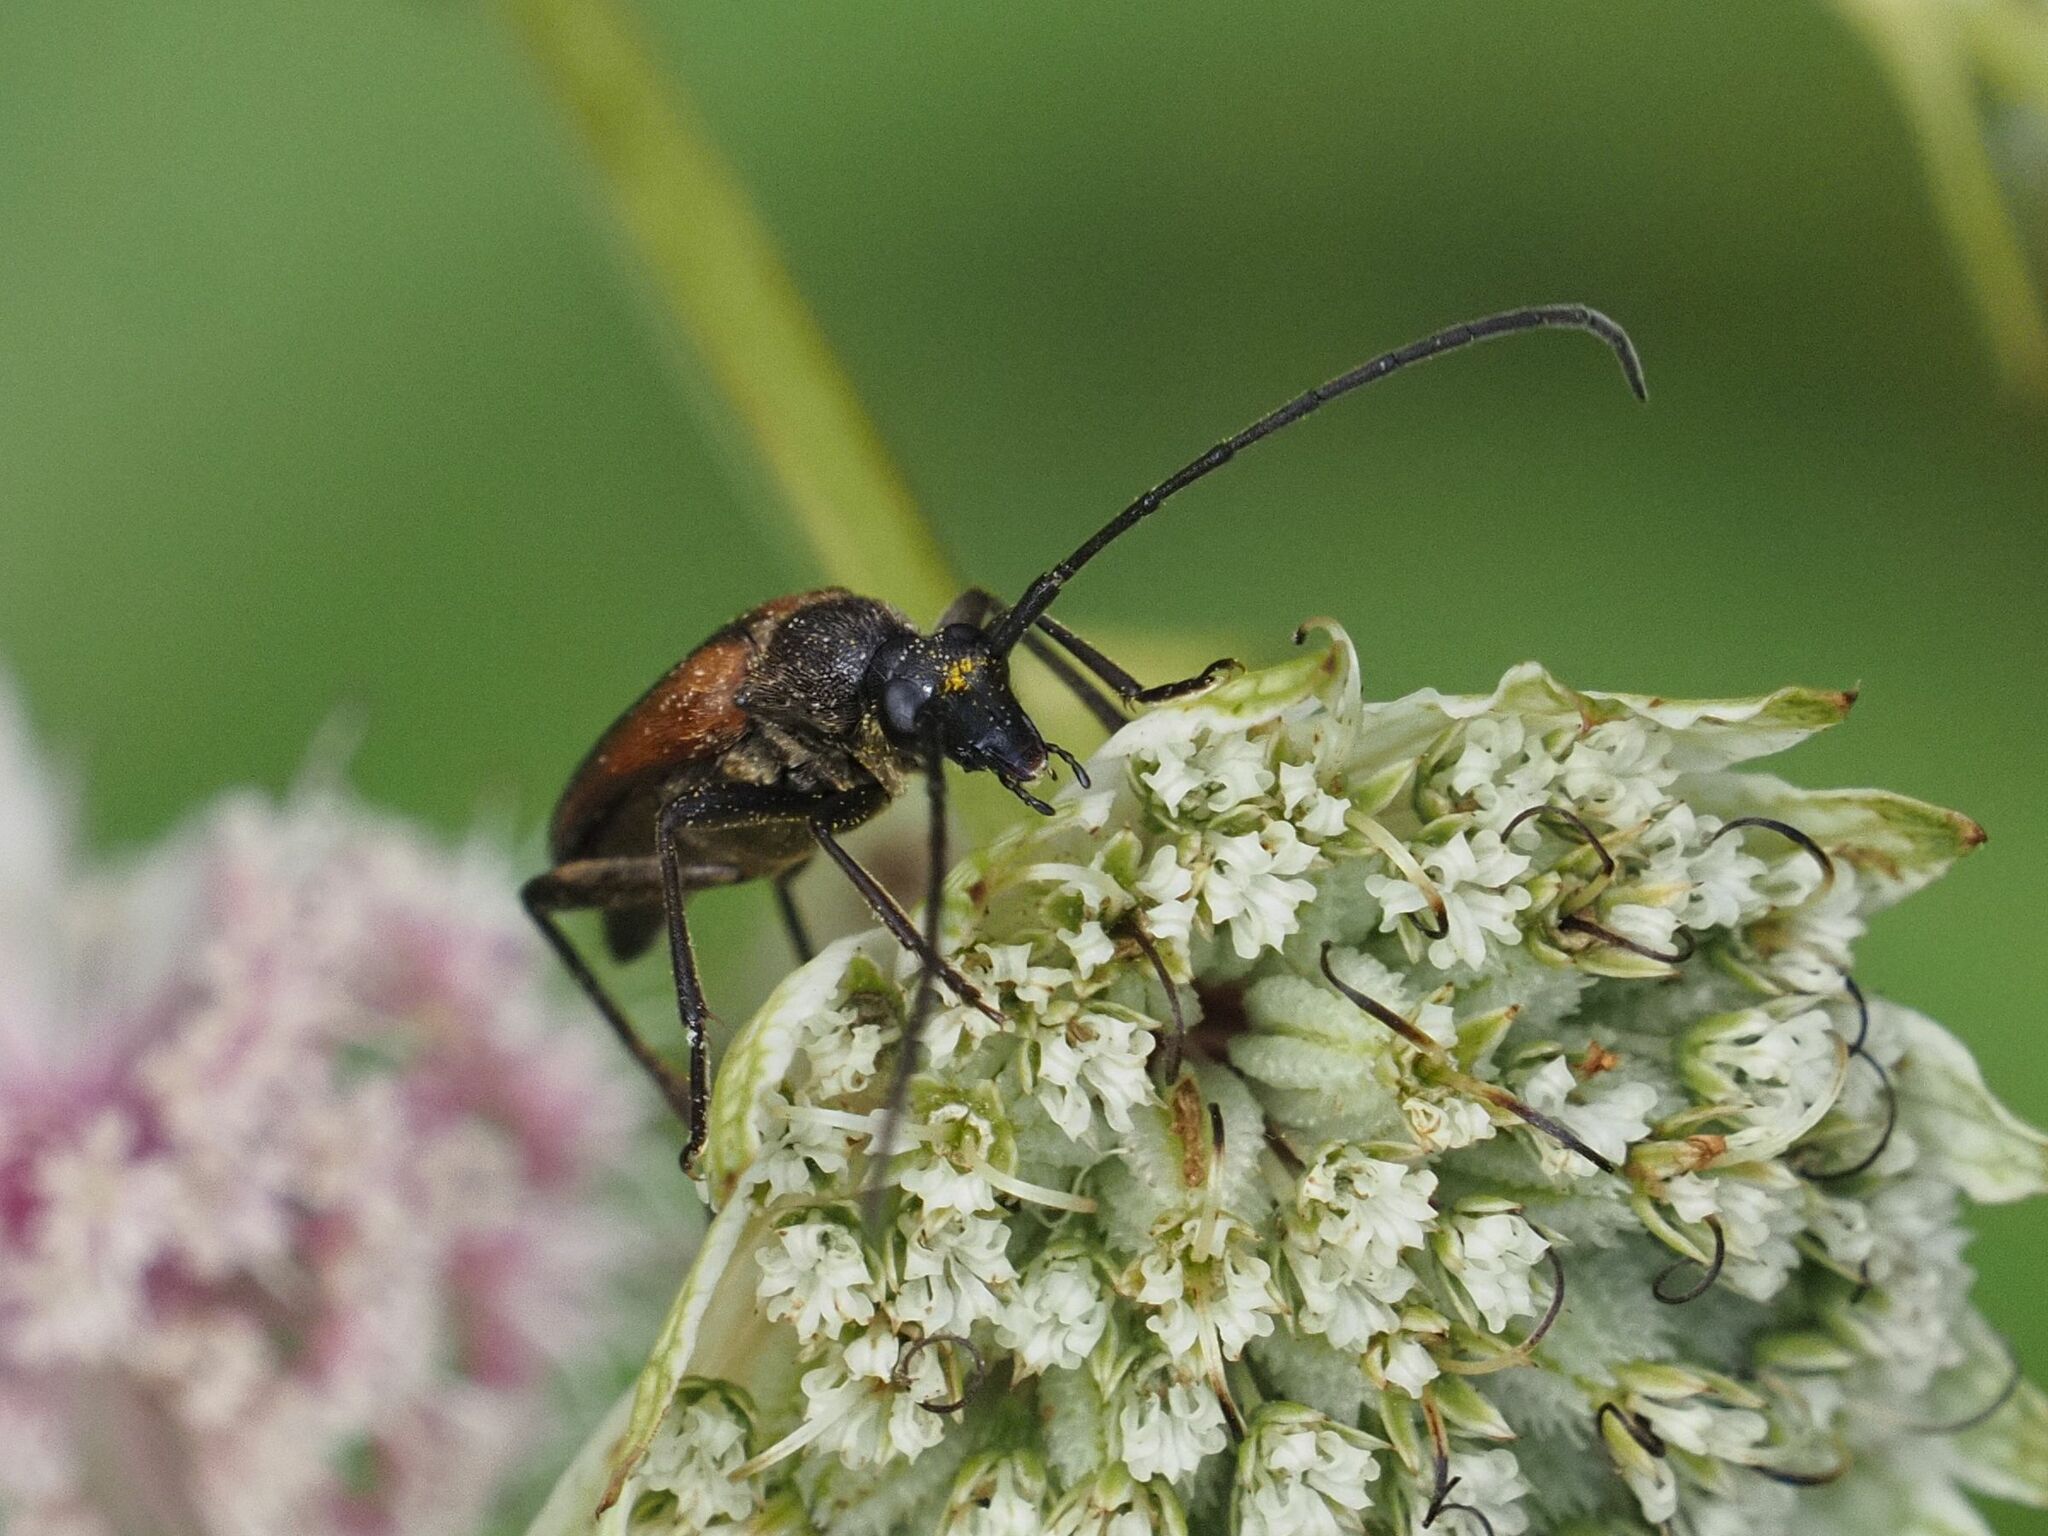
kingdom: Animalia
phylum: Arthropoda
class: Insecta
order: Coleoptera
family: Cerambycidae
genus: Stenurella
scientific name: Stenurella melanura
